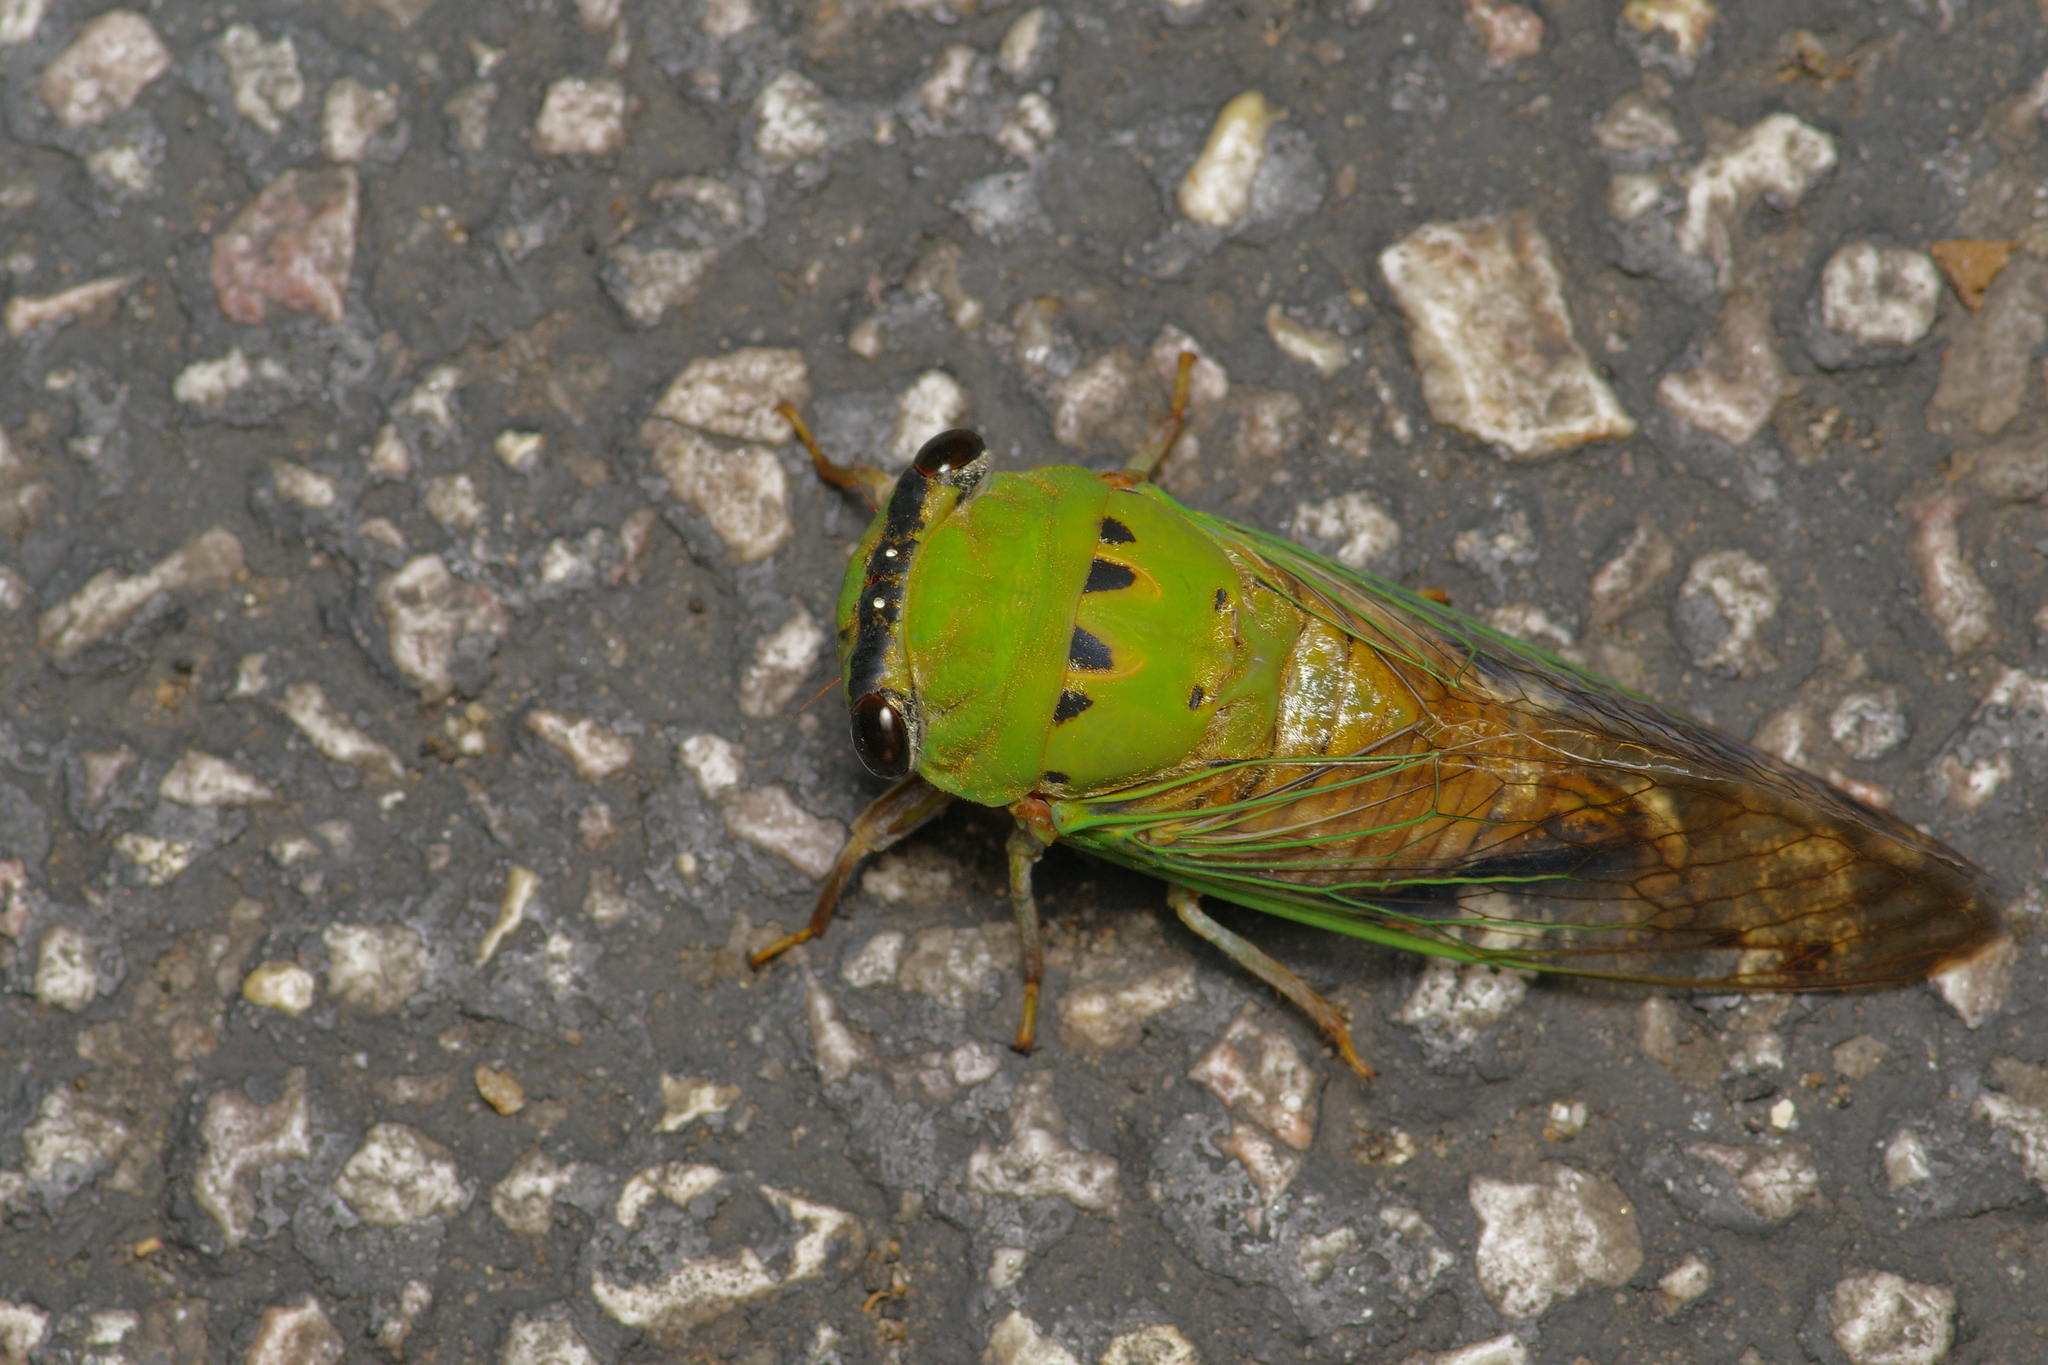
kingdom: Animalia
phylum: Arthropoda
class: Insecta
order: Hemiptera
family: Cicadidae
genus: Neotibicen
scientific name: Neotibicen superbus
